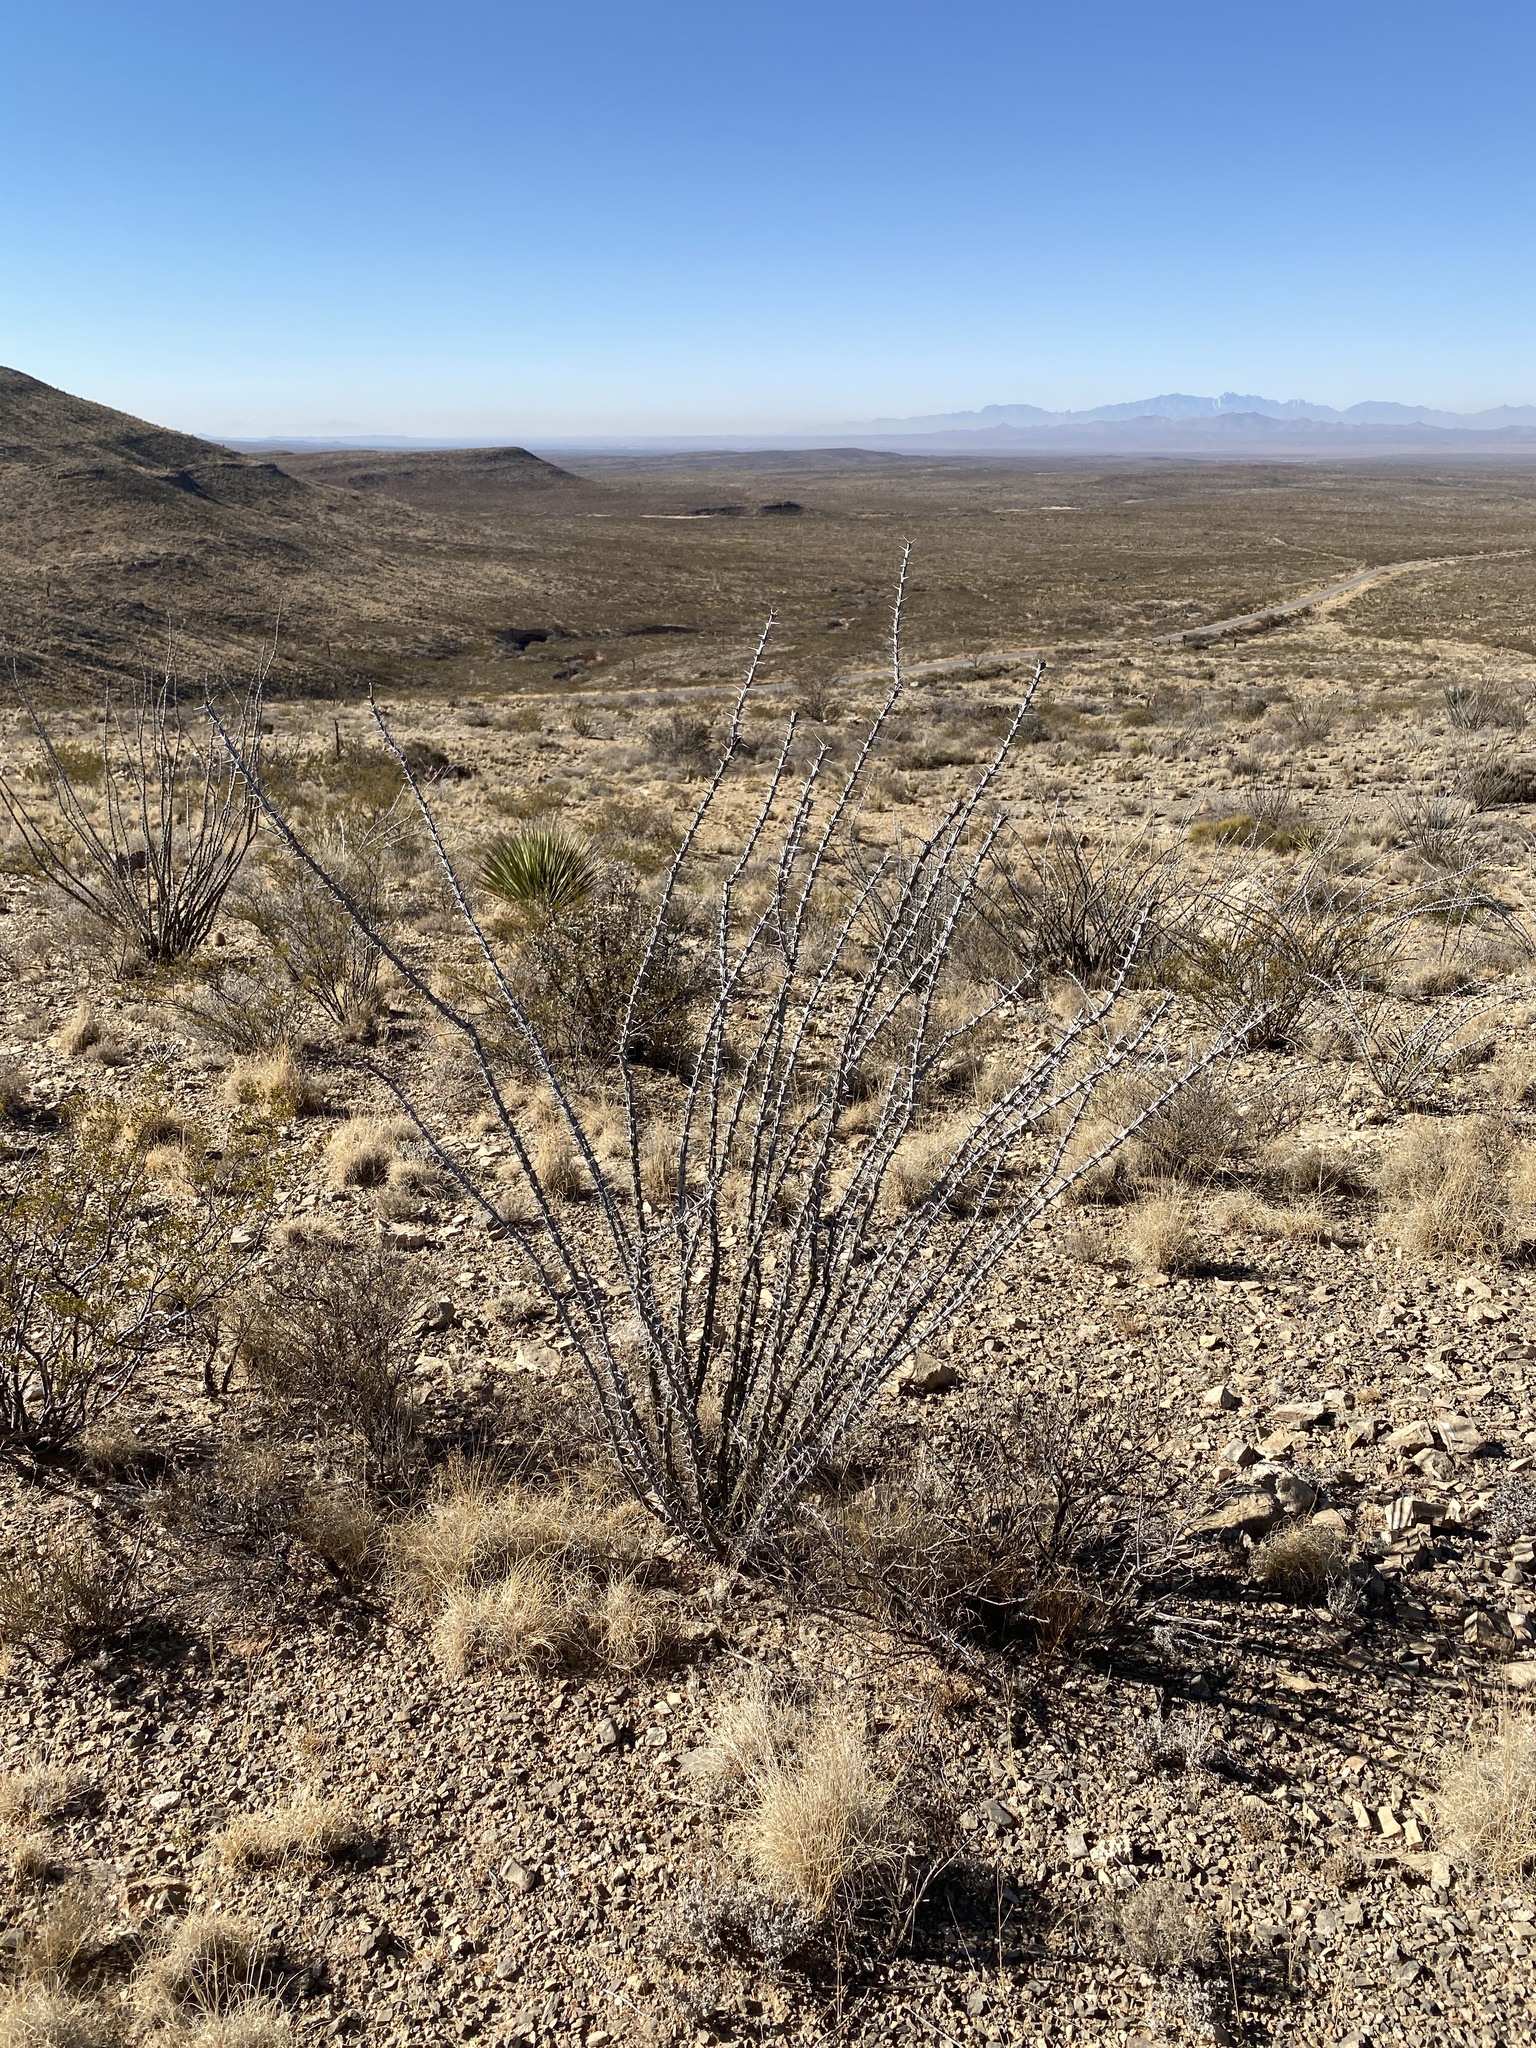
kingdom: Plantae
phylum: Tracheophyta
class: Magnoliopsida
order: Ericales
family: Fouquieriaceae
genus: Fouquieria
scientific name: Fouquieria splendens
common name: Vine-cactus
